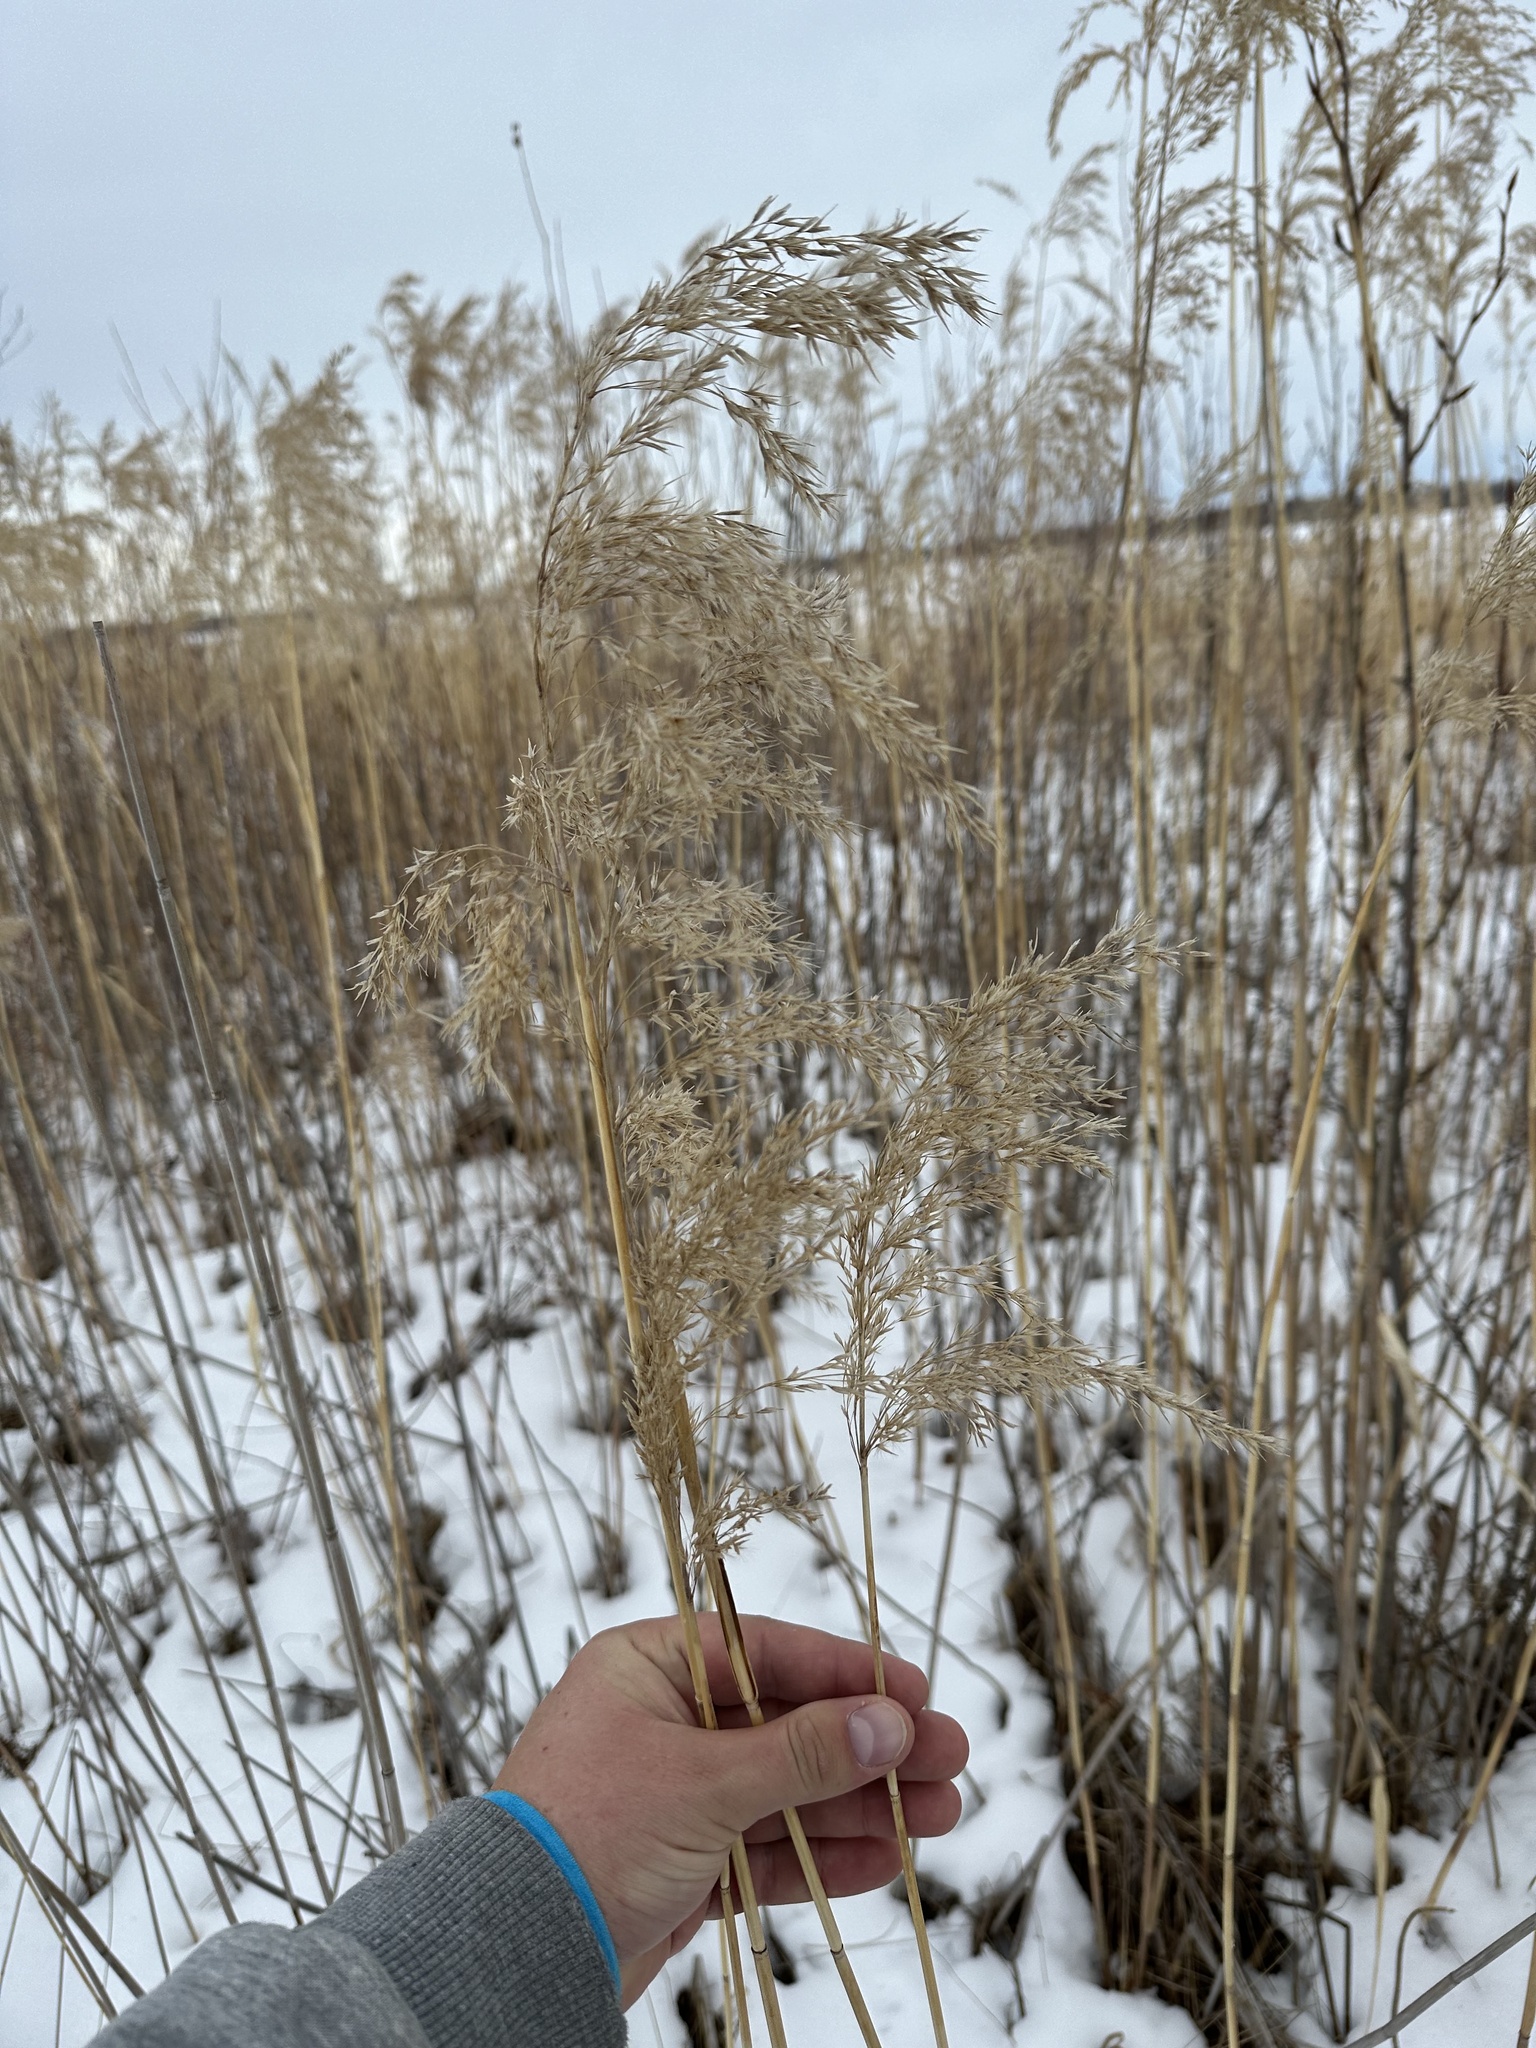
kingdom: Plantae
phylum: Tracheophyta
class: Liliopsida
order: Poales
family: Poaceae
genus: Phragmites
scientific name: Phragmites australis
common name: Common reed
